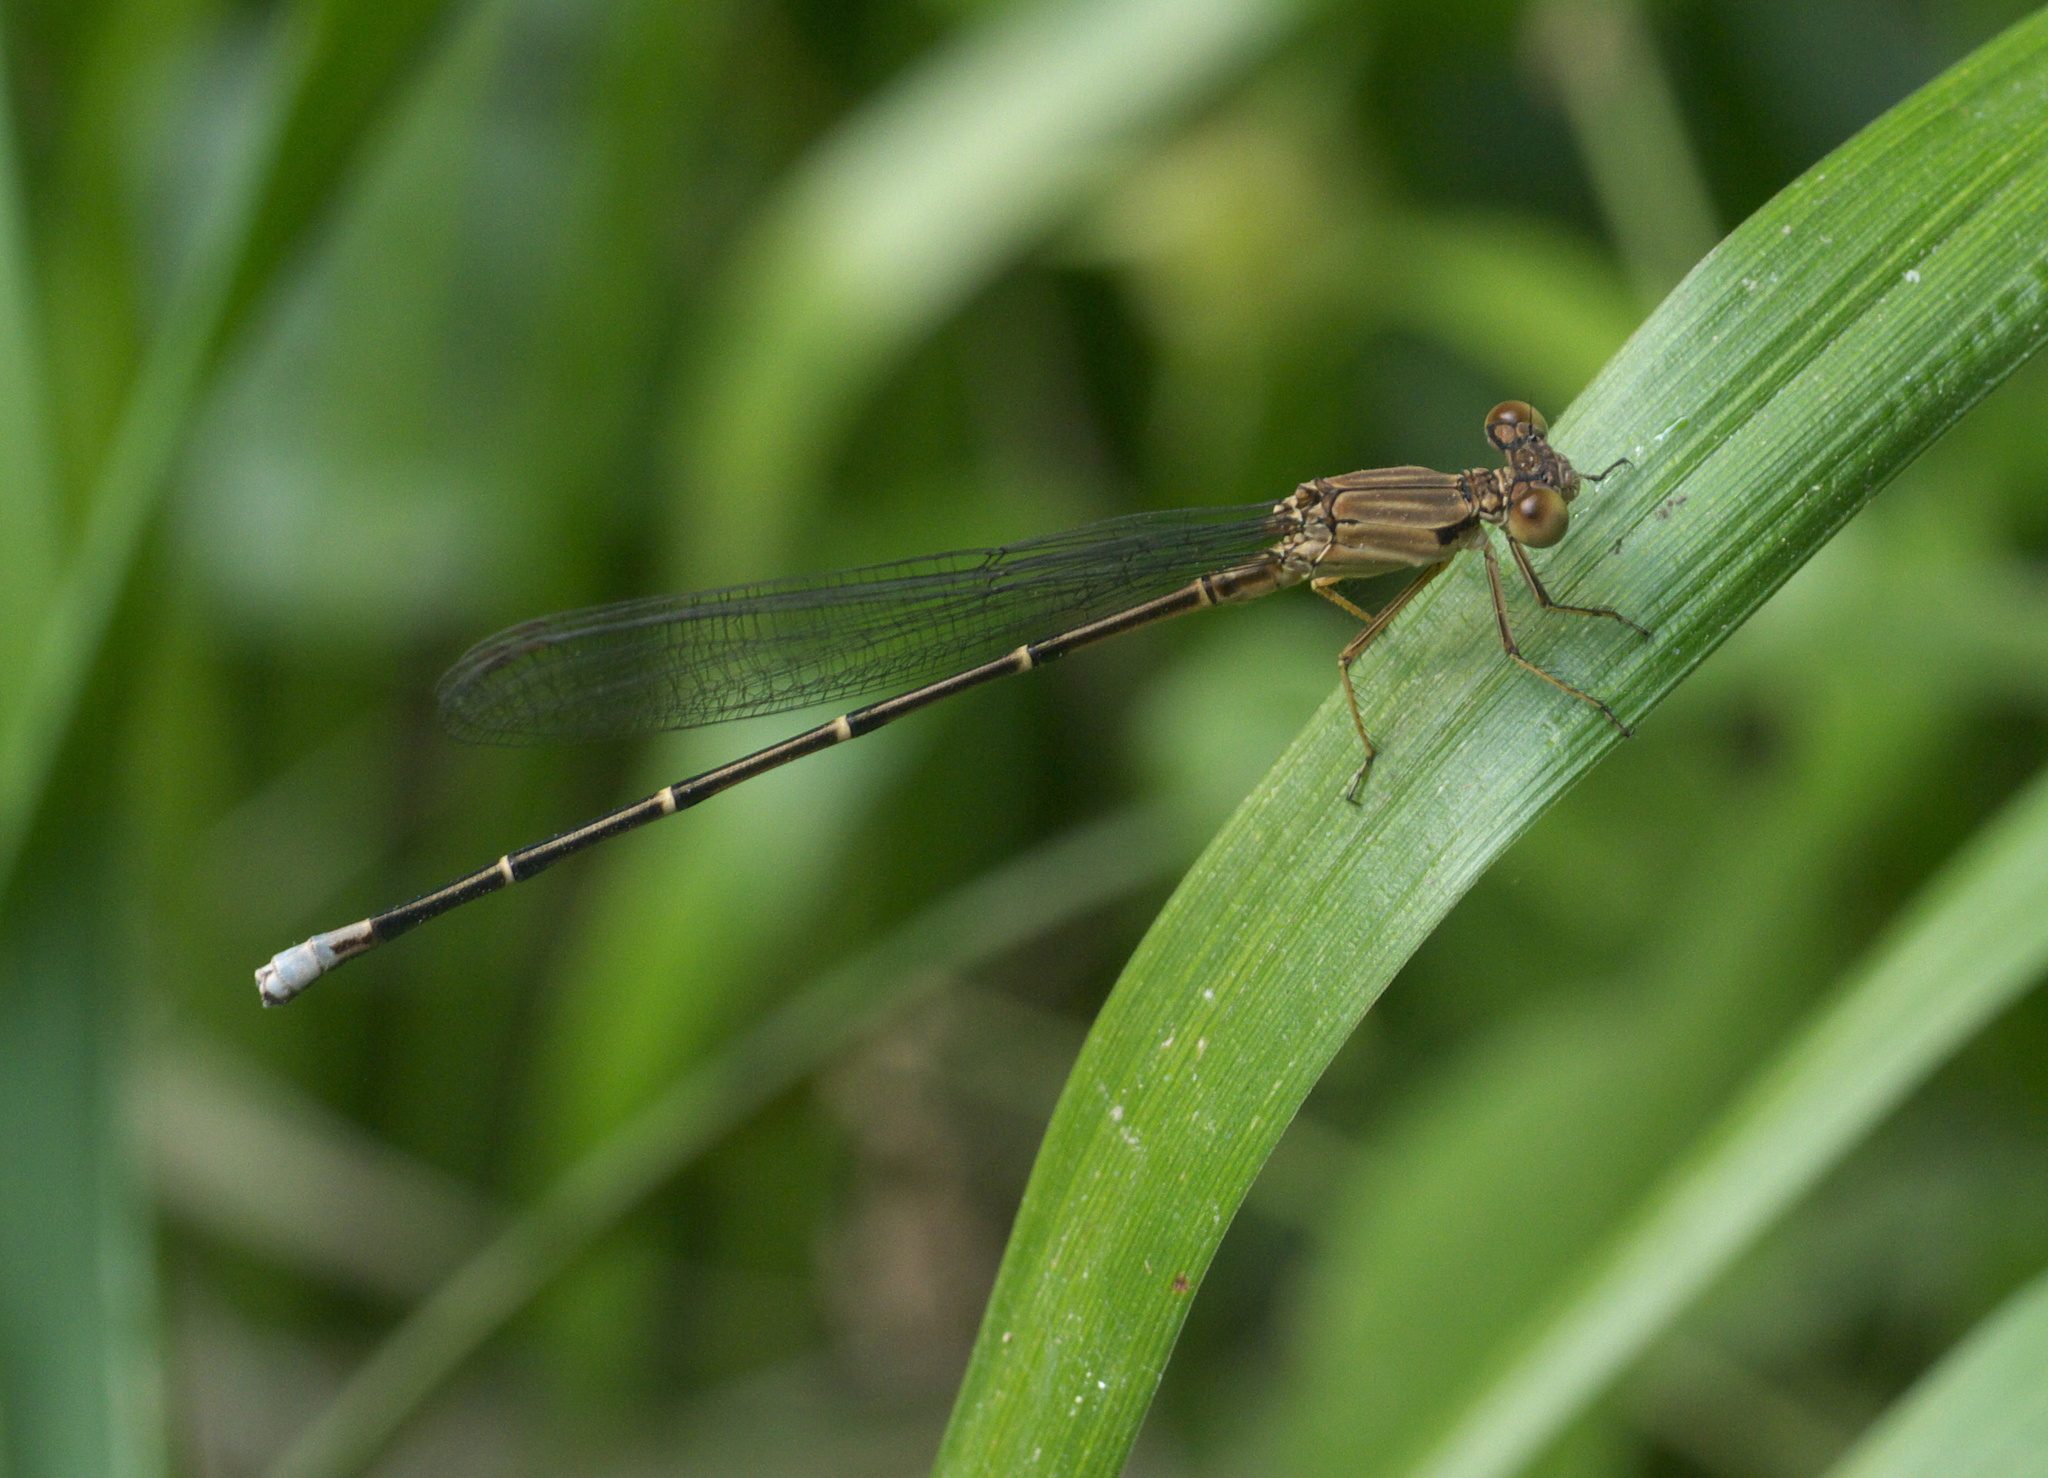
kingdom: Animalia
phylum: Arthropoda
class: Insecta
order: Odonata
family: Coenagrionidae
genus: Argia
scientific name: Argia apicalis
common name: Blue-fronted dancer
